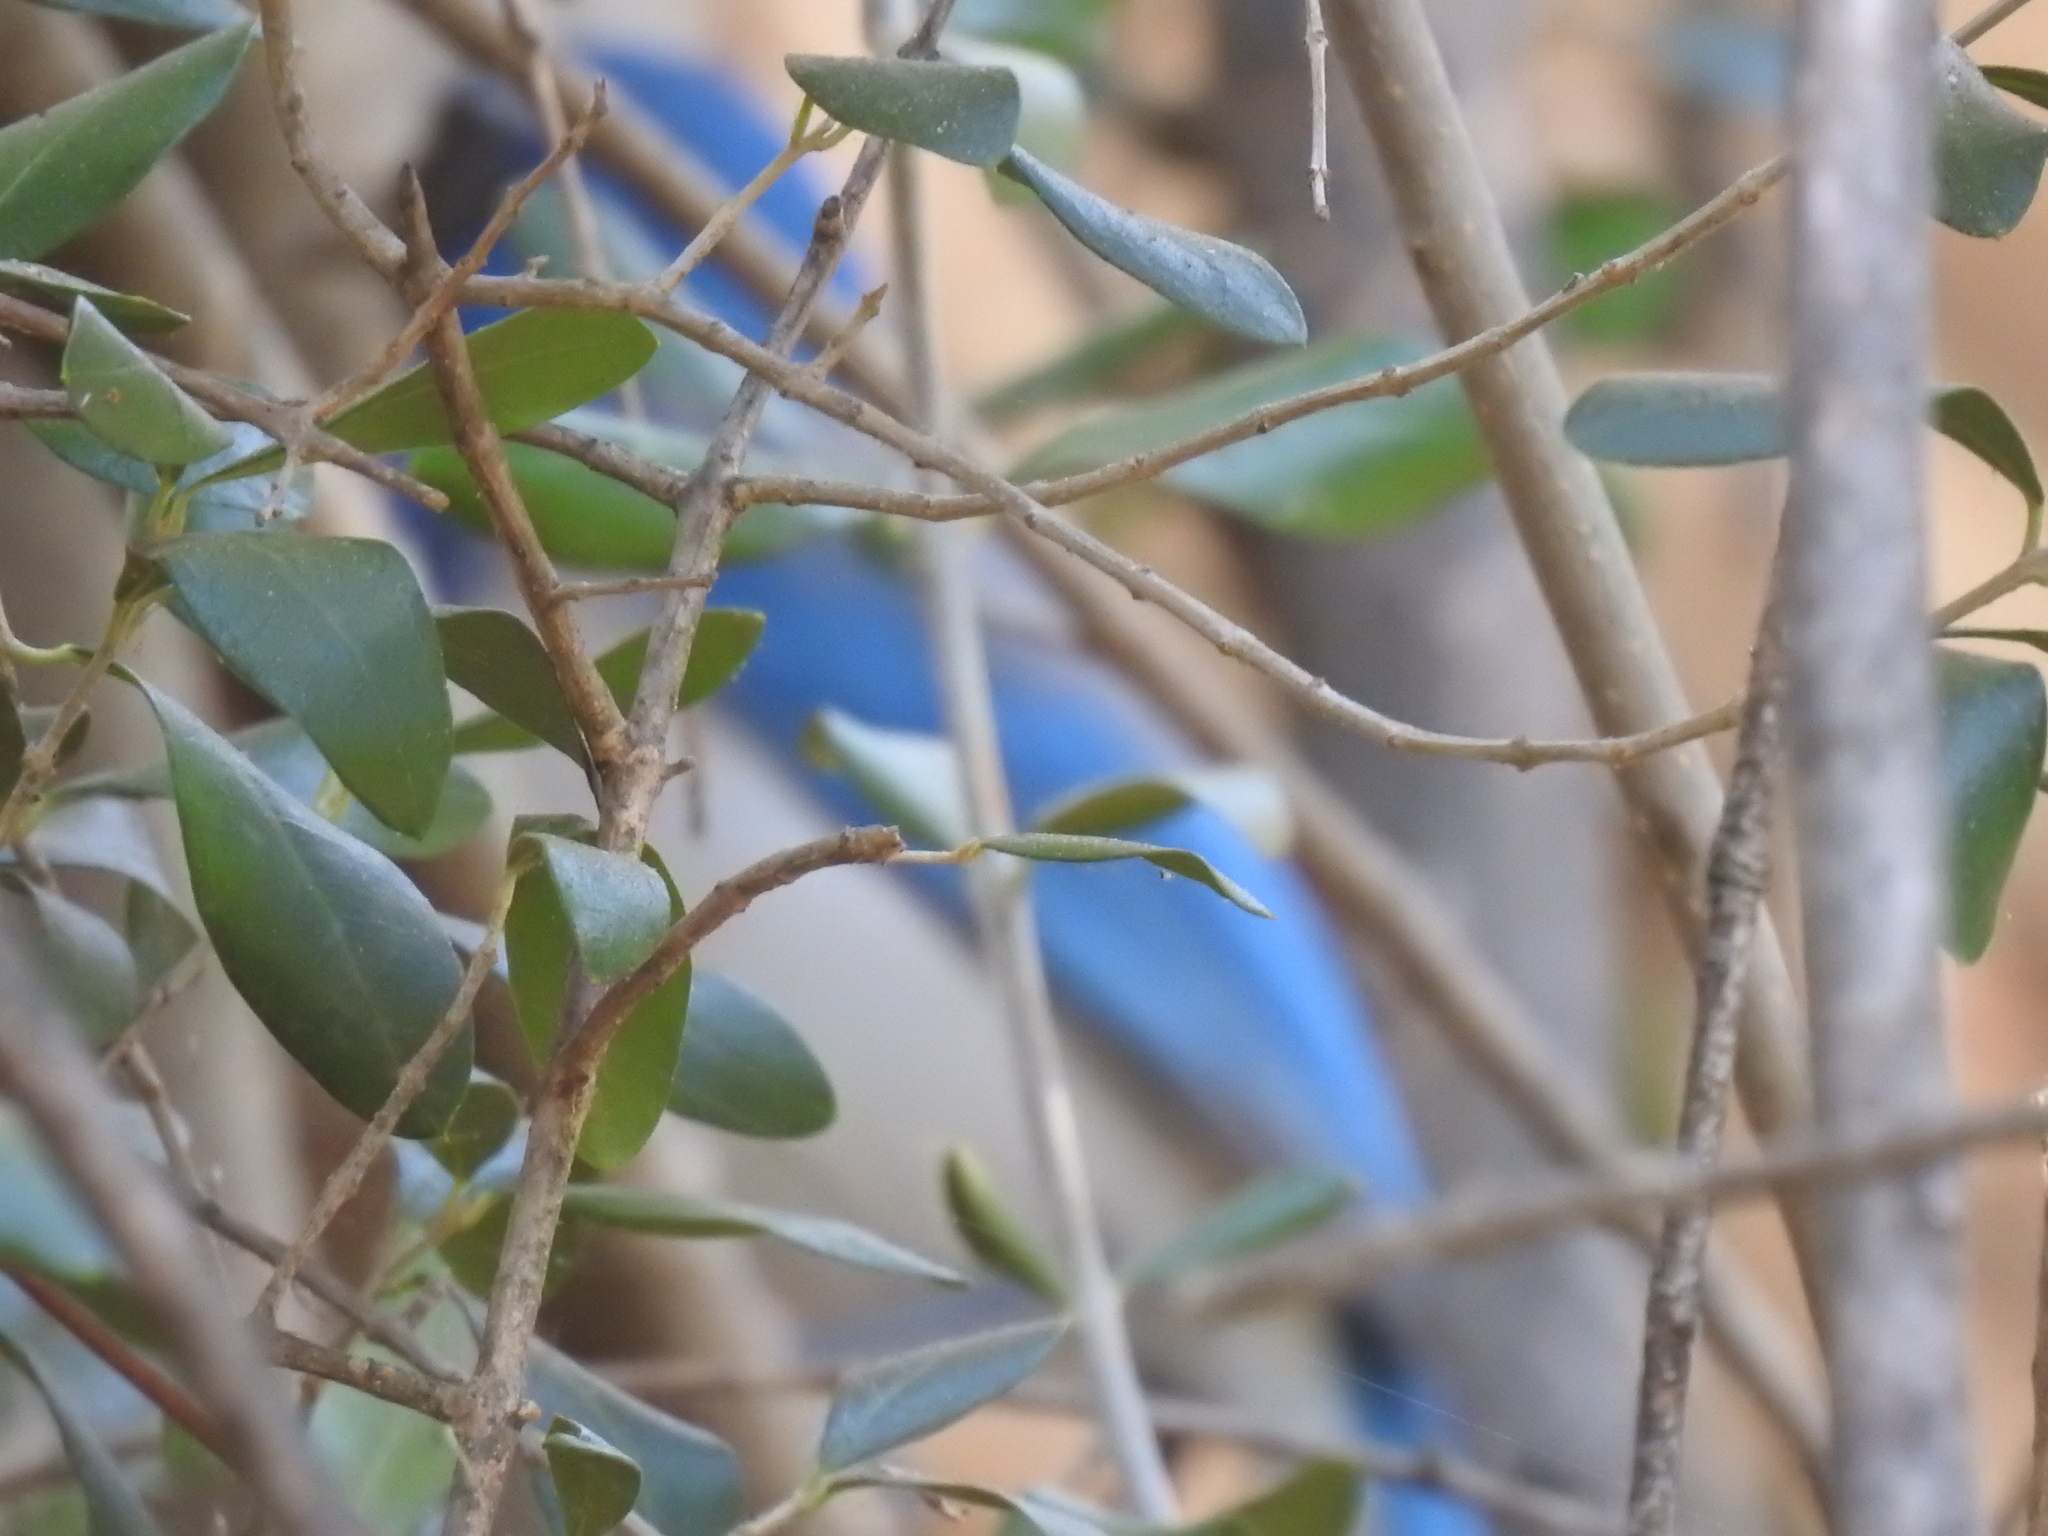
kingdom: Animalia
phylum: Chordata
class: Aves
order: Passeriformes
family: Corvidae
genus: Aphelocoma
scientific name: Aphelocoma californica
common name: California scrub-jay
